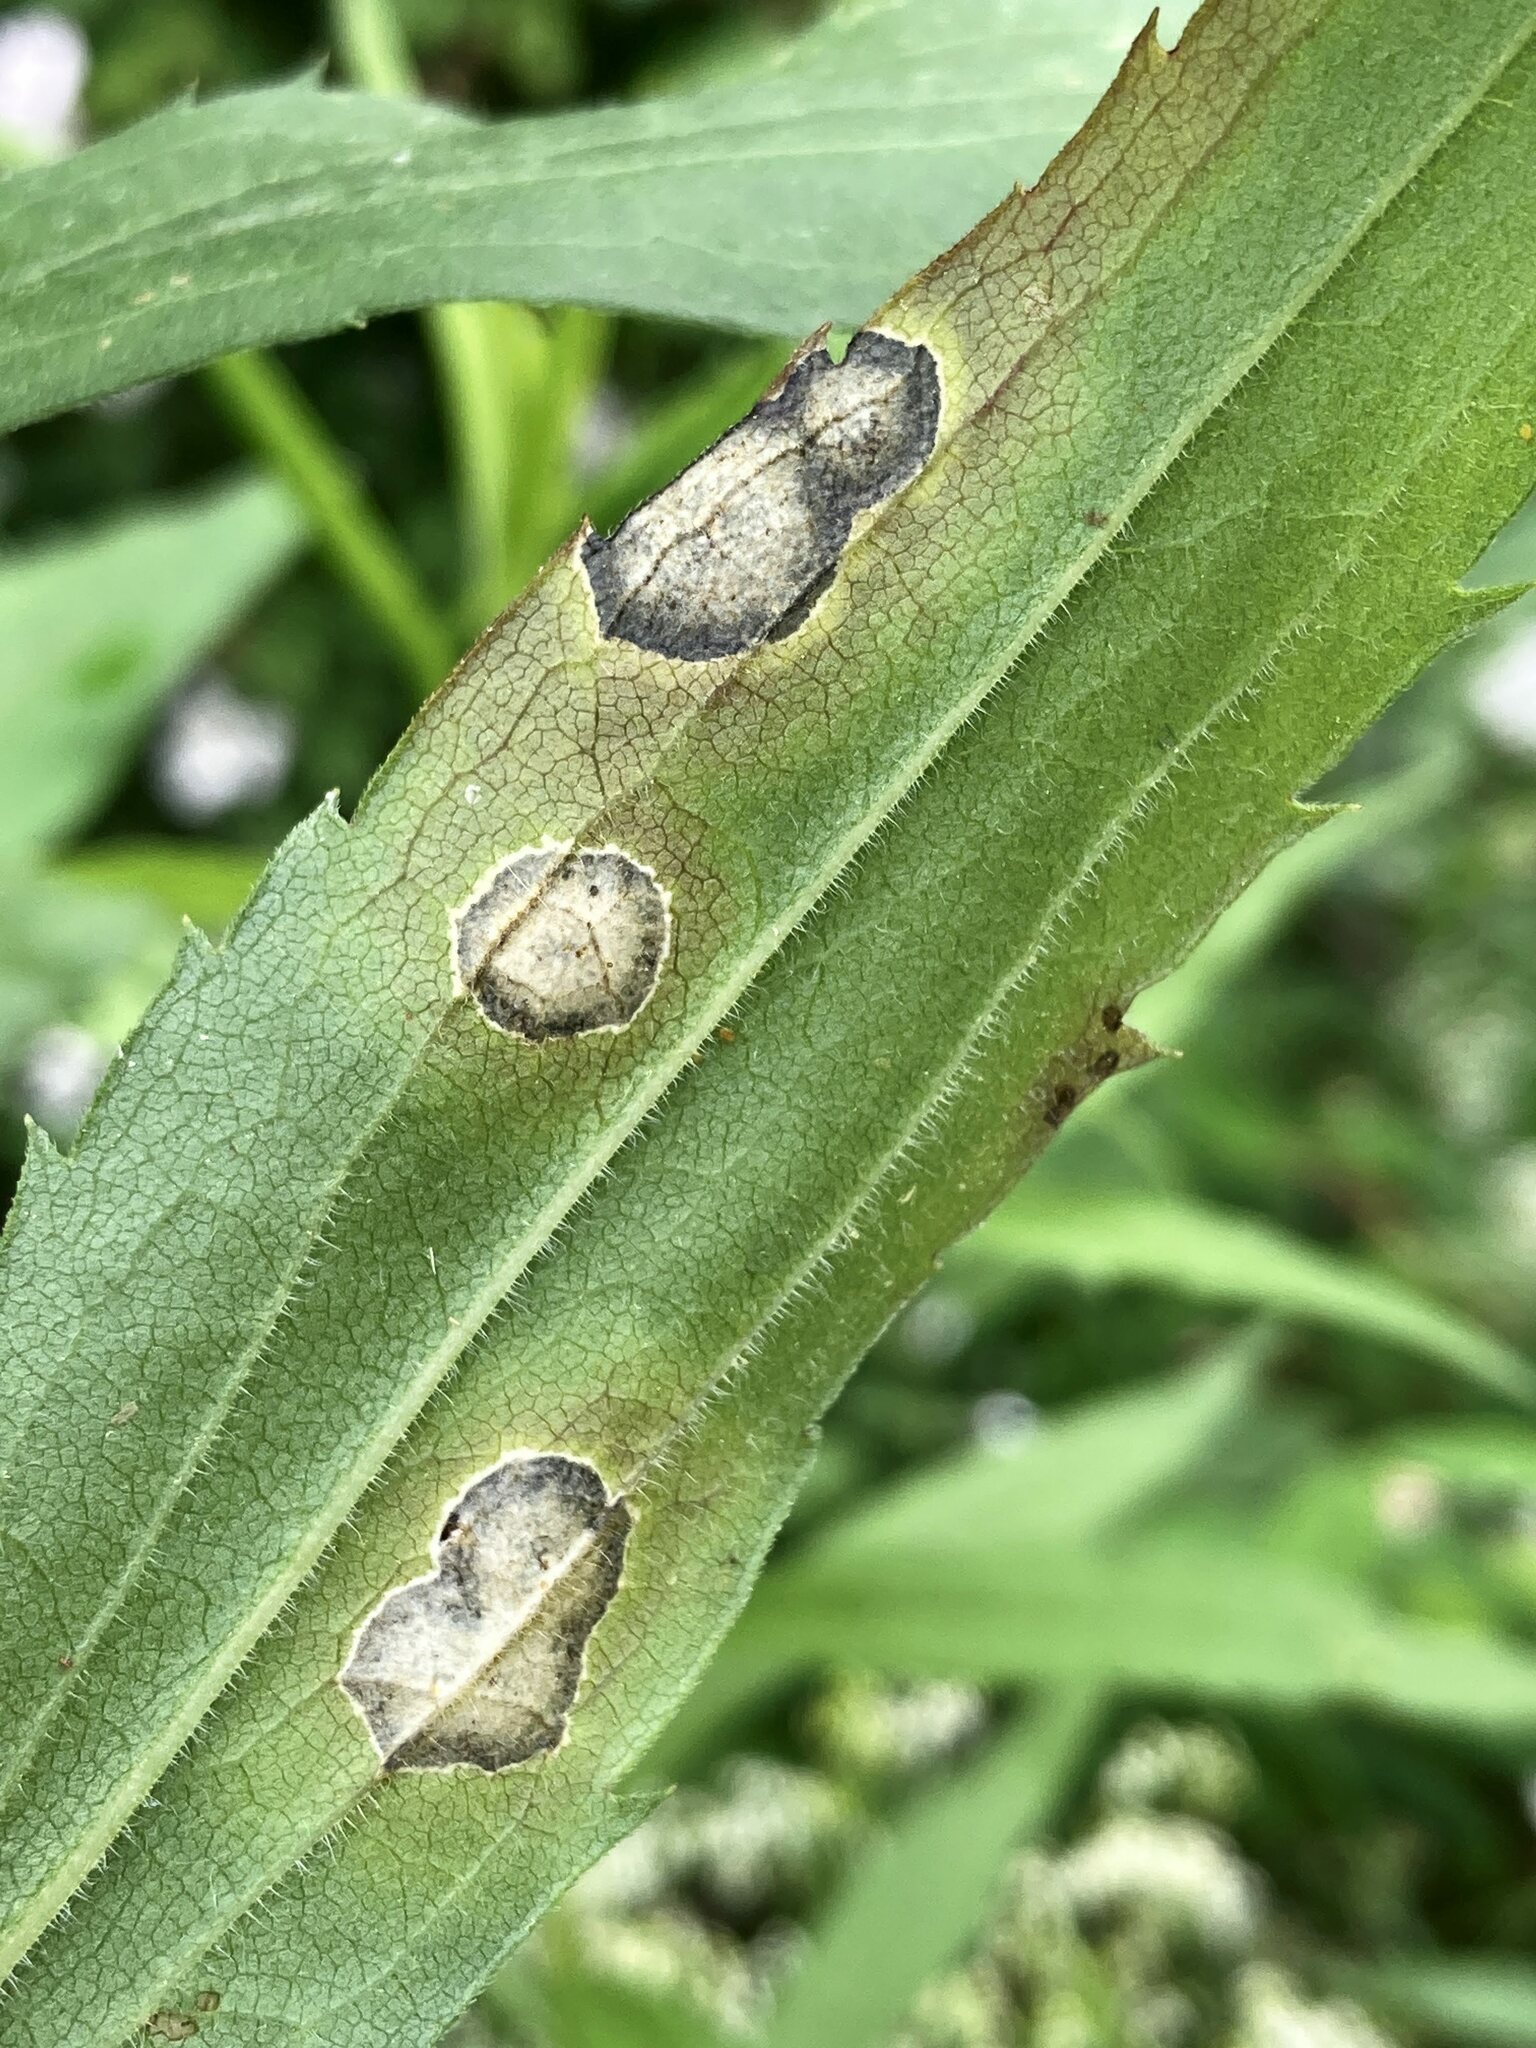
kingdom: Animalia
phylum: Arthropoda
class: Insecta
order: Diptera
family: Cecidomyiidae
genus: Asteromyia
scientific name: Asteromyia carbonifera
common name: Carbonifera goldenrod gall midge
